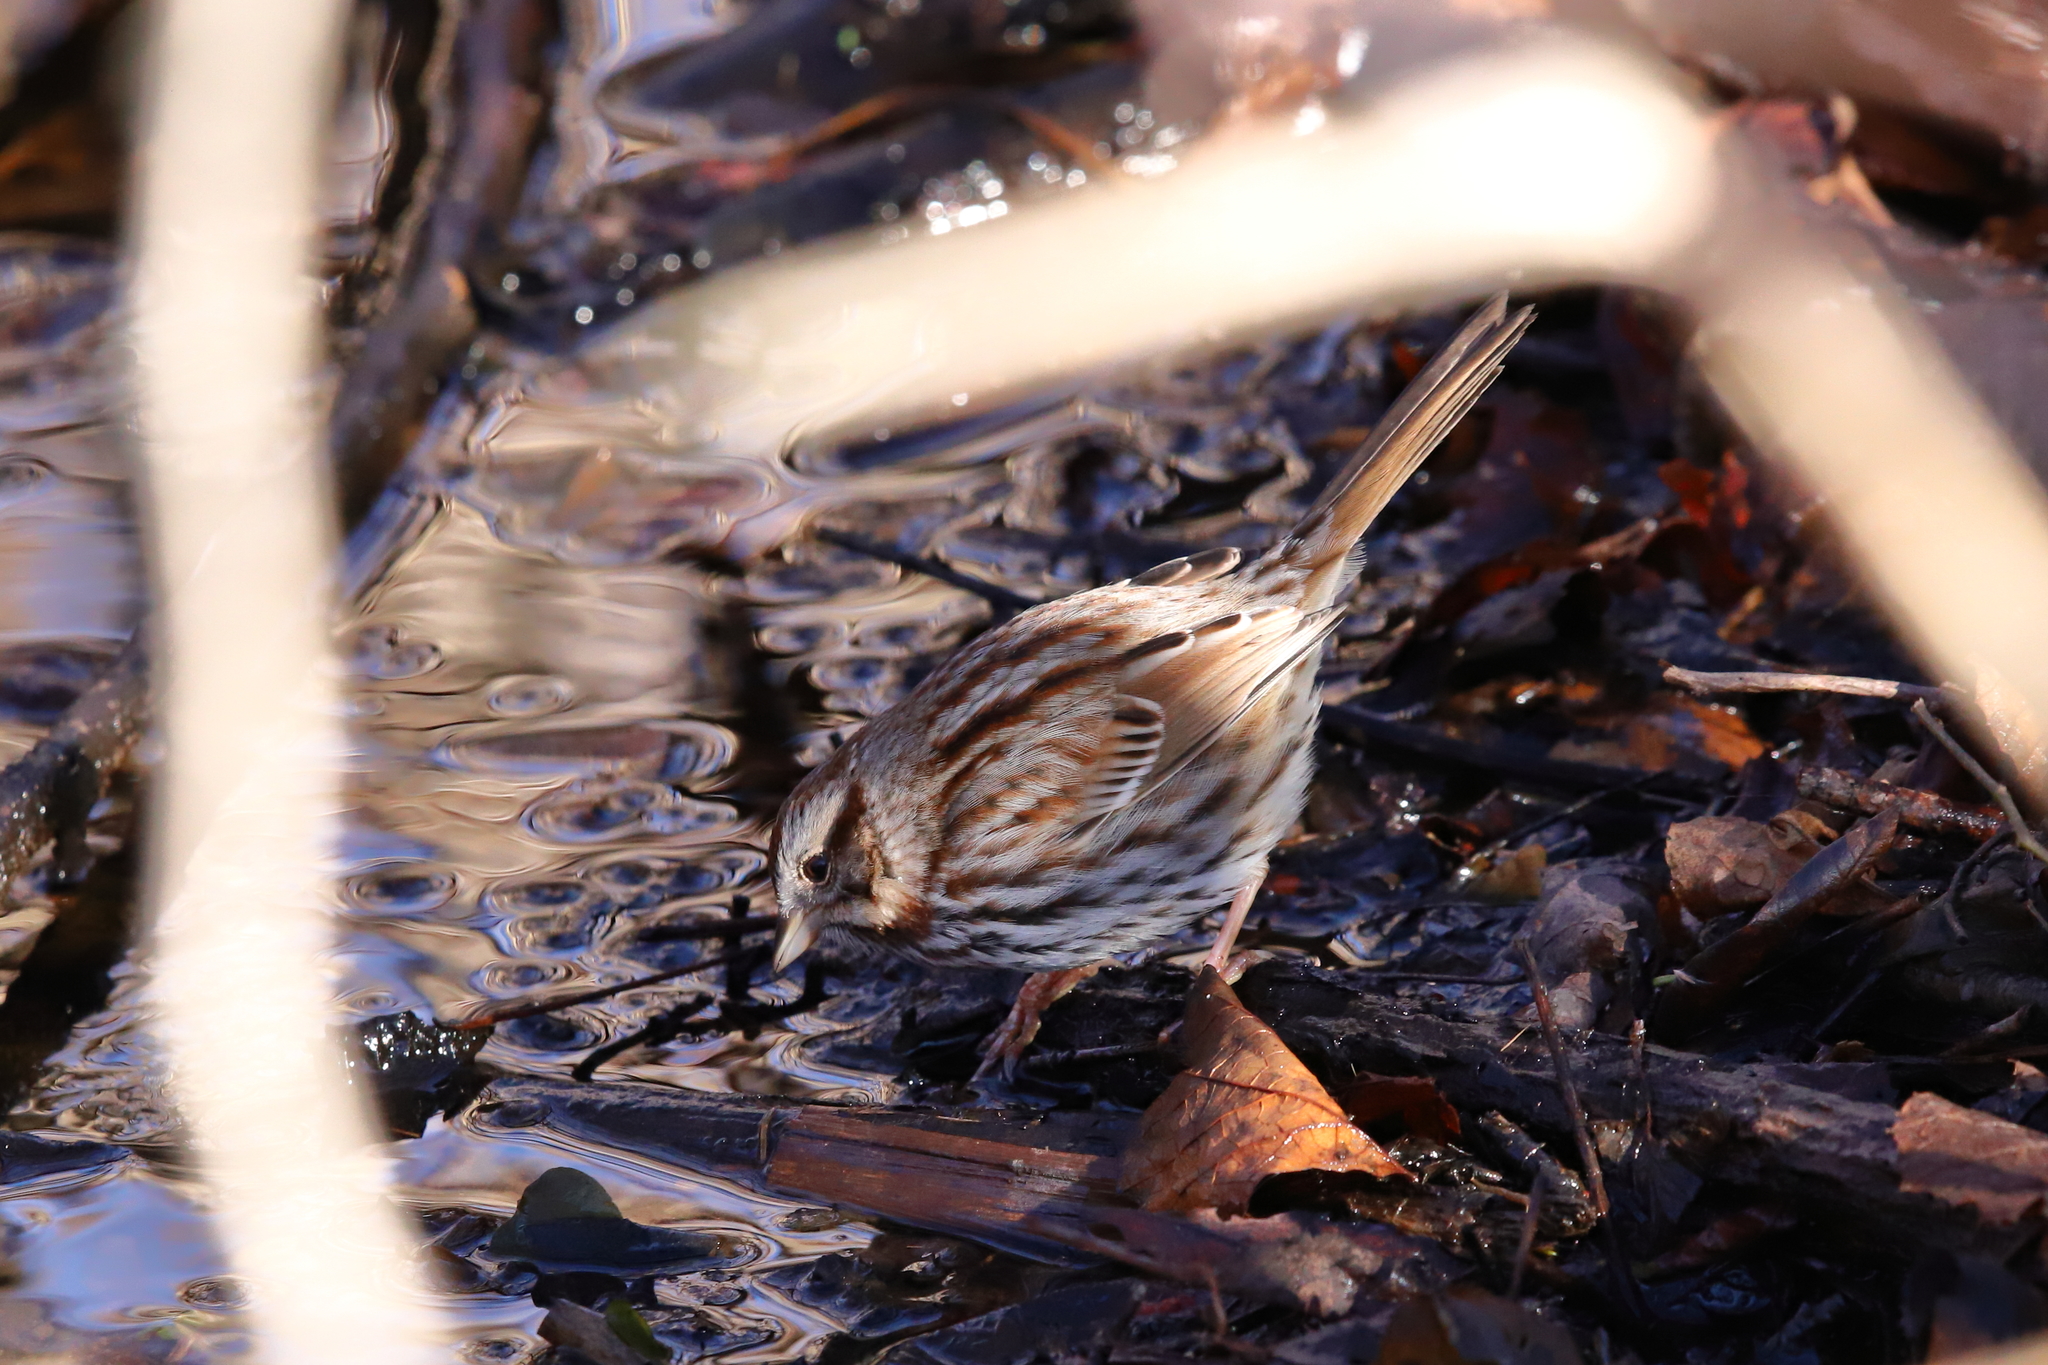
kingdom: Animalia
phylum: Chordata
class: Aves
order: Passeriformes
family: Passerellidae
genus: Melospiza
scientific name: Melospiza melodia
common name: Song sparrow
